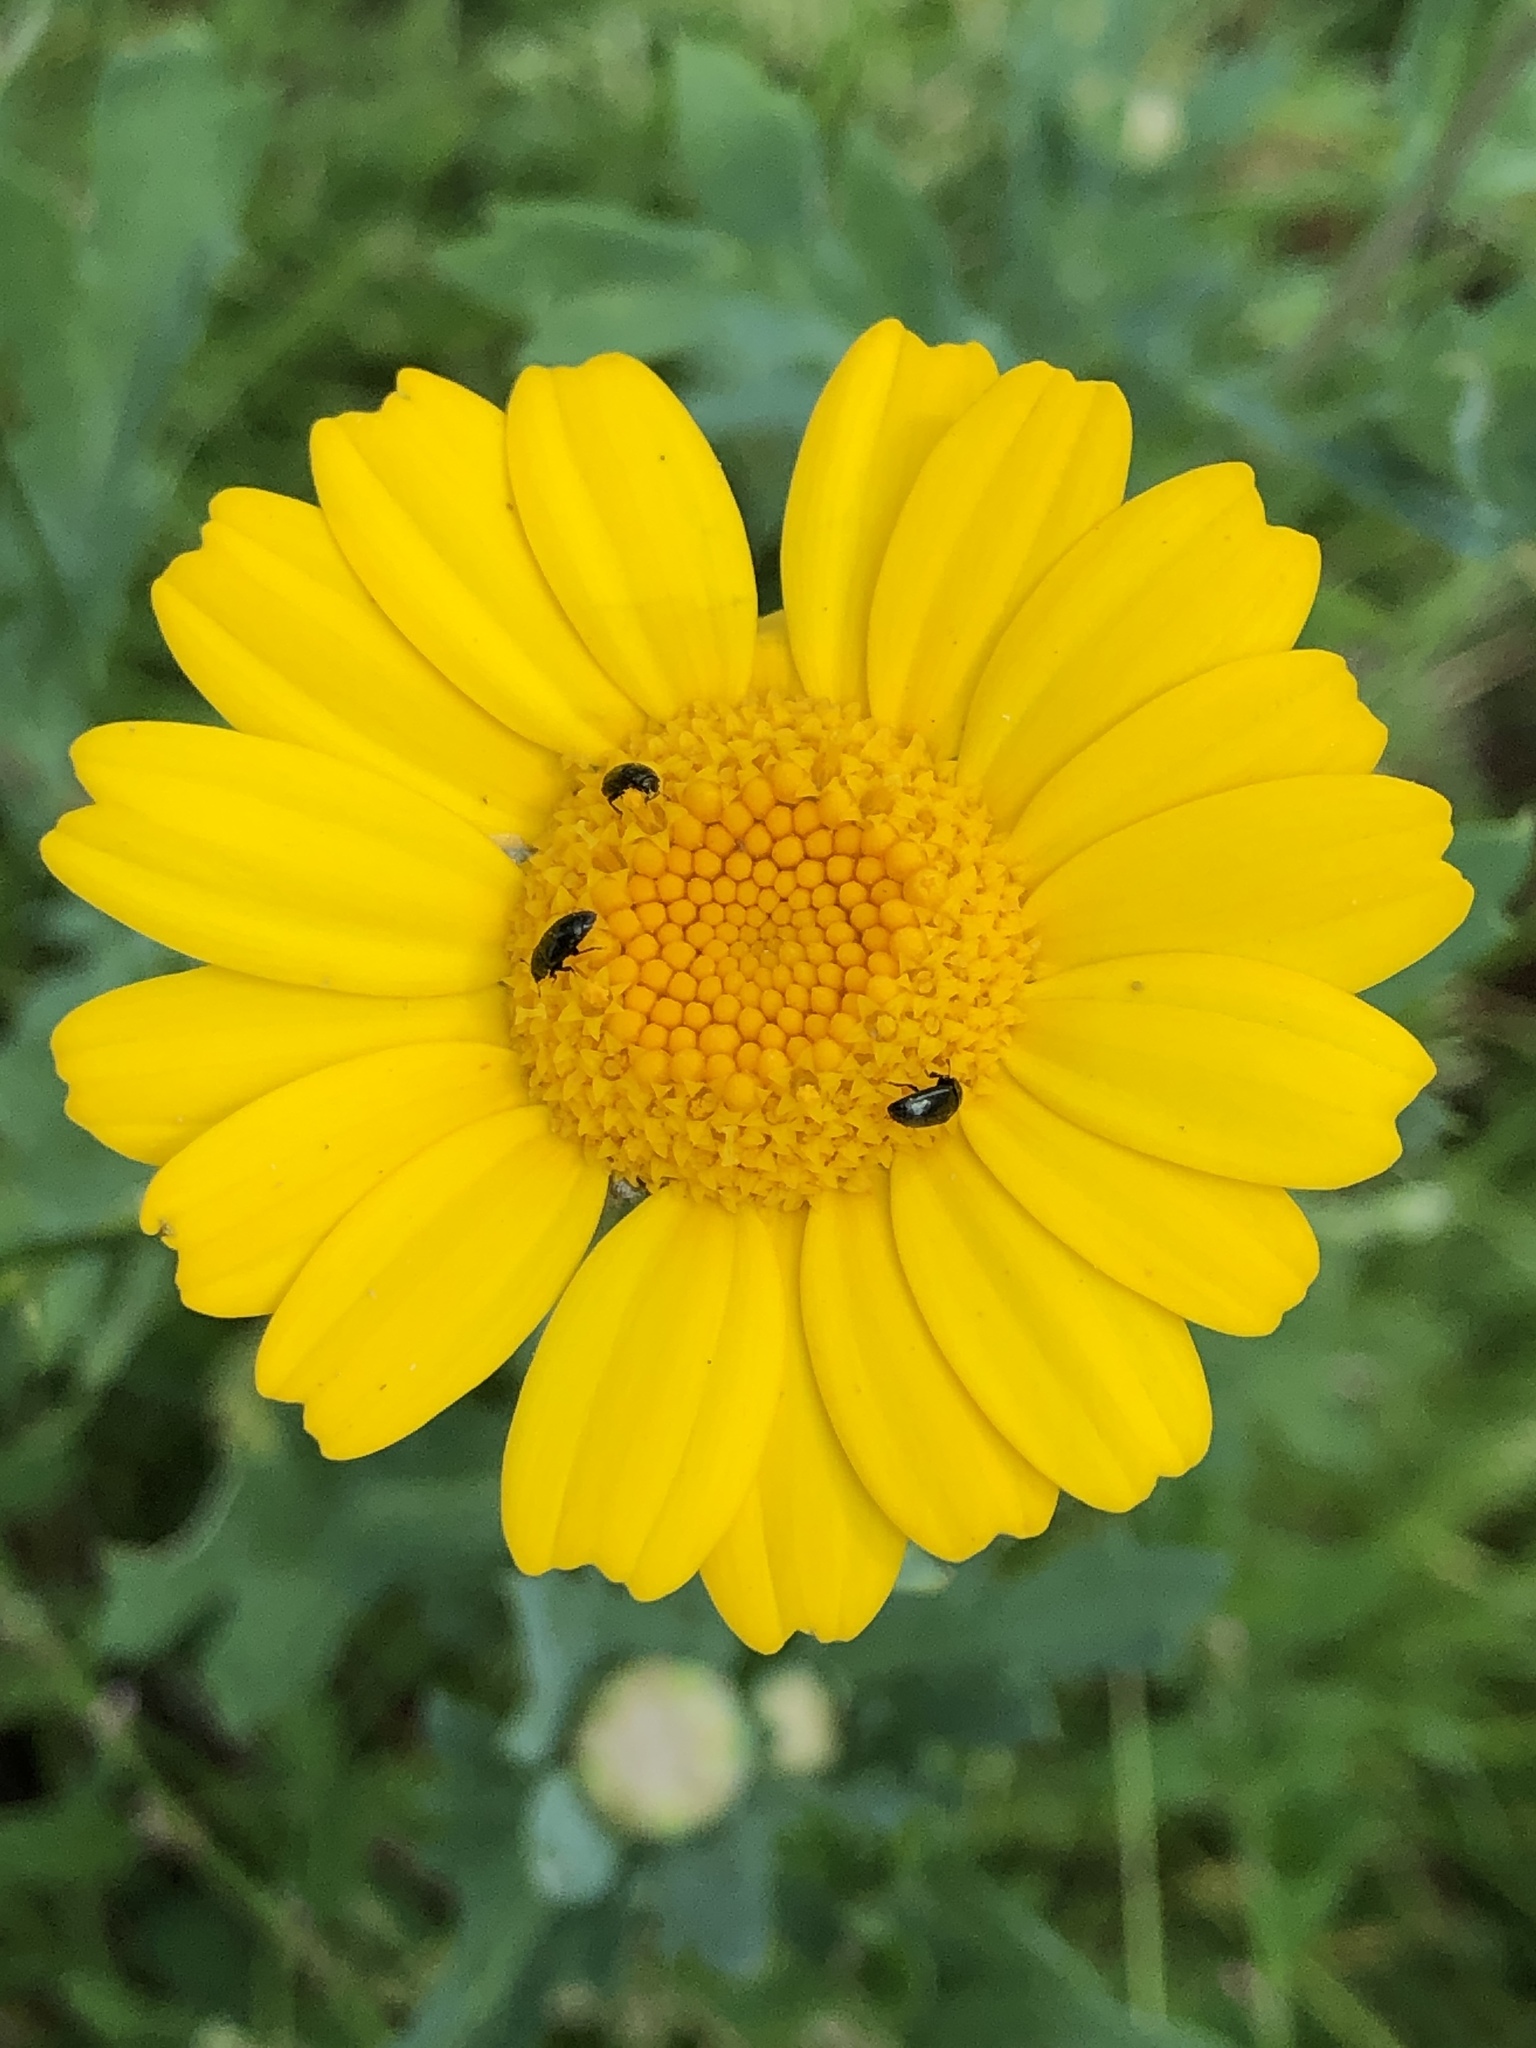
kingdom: Plantae
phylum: Tracheophyta
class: Magnoliopsida
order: Asterales
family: Asteraceae
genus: Glebionis
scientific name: Glebionis segetum
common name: Corndaisy
